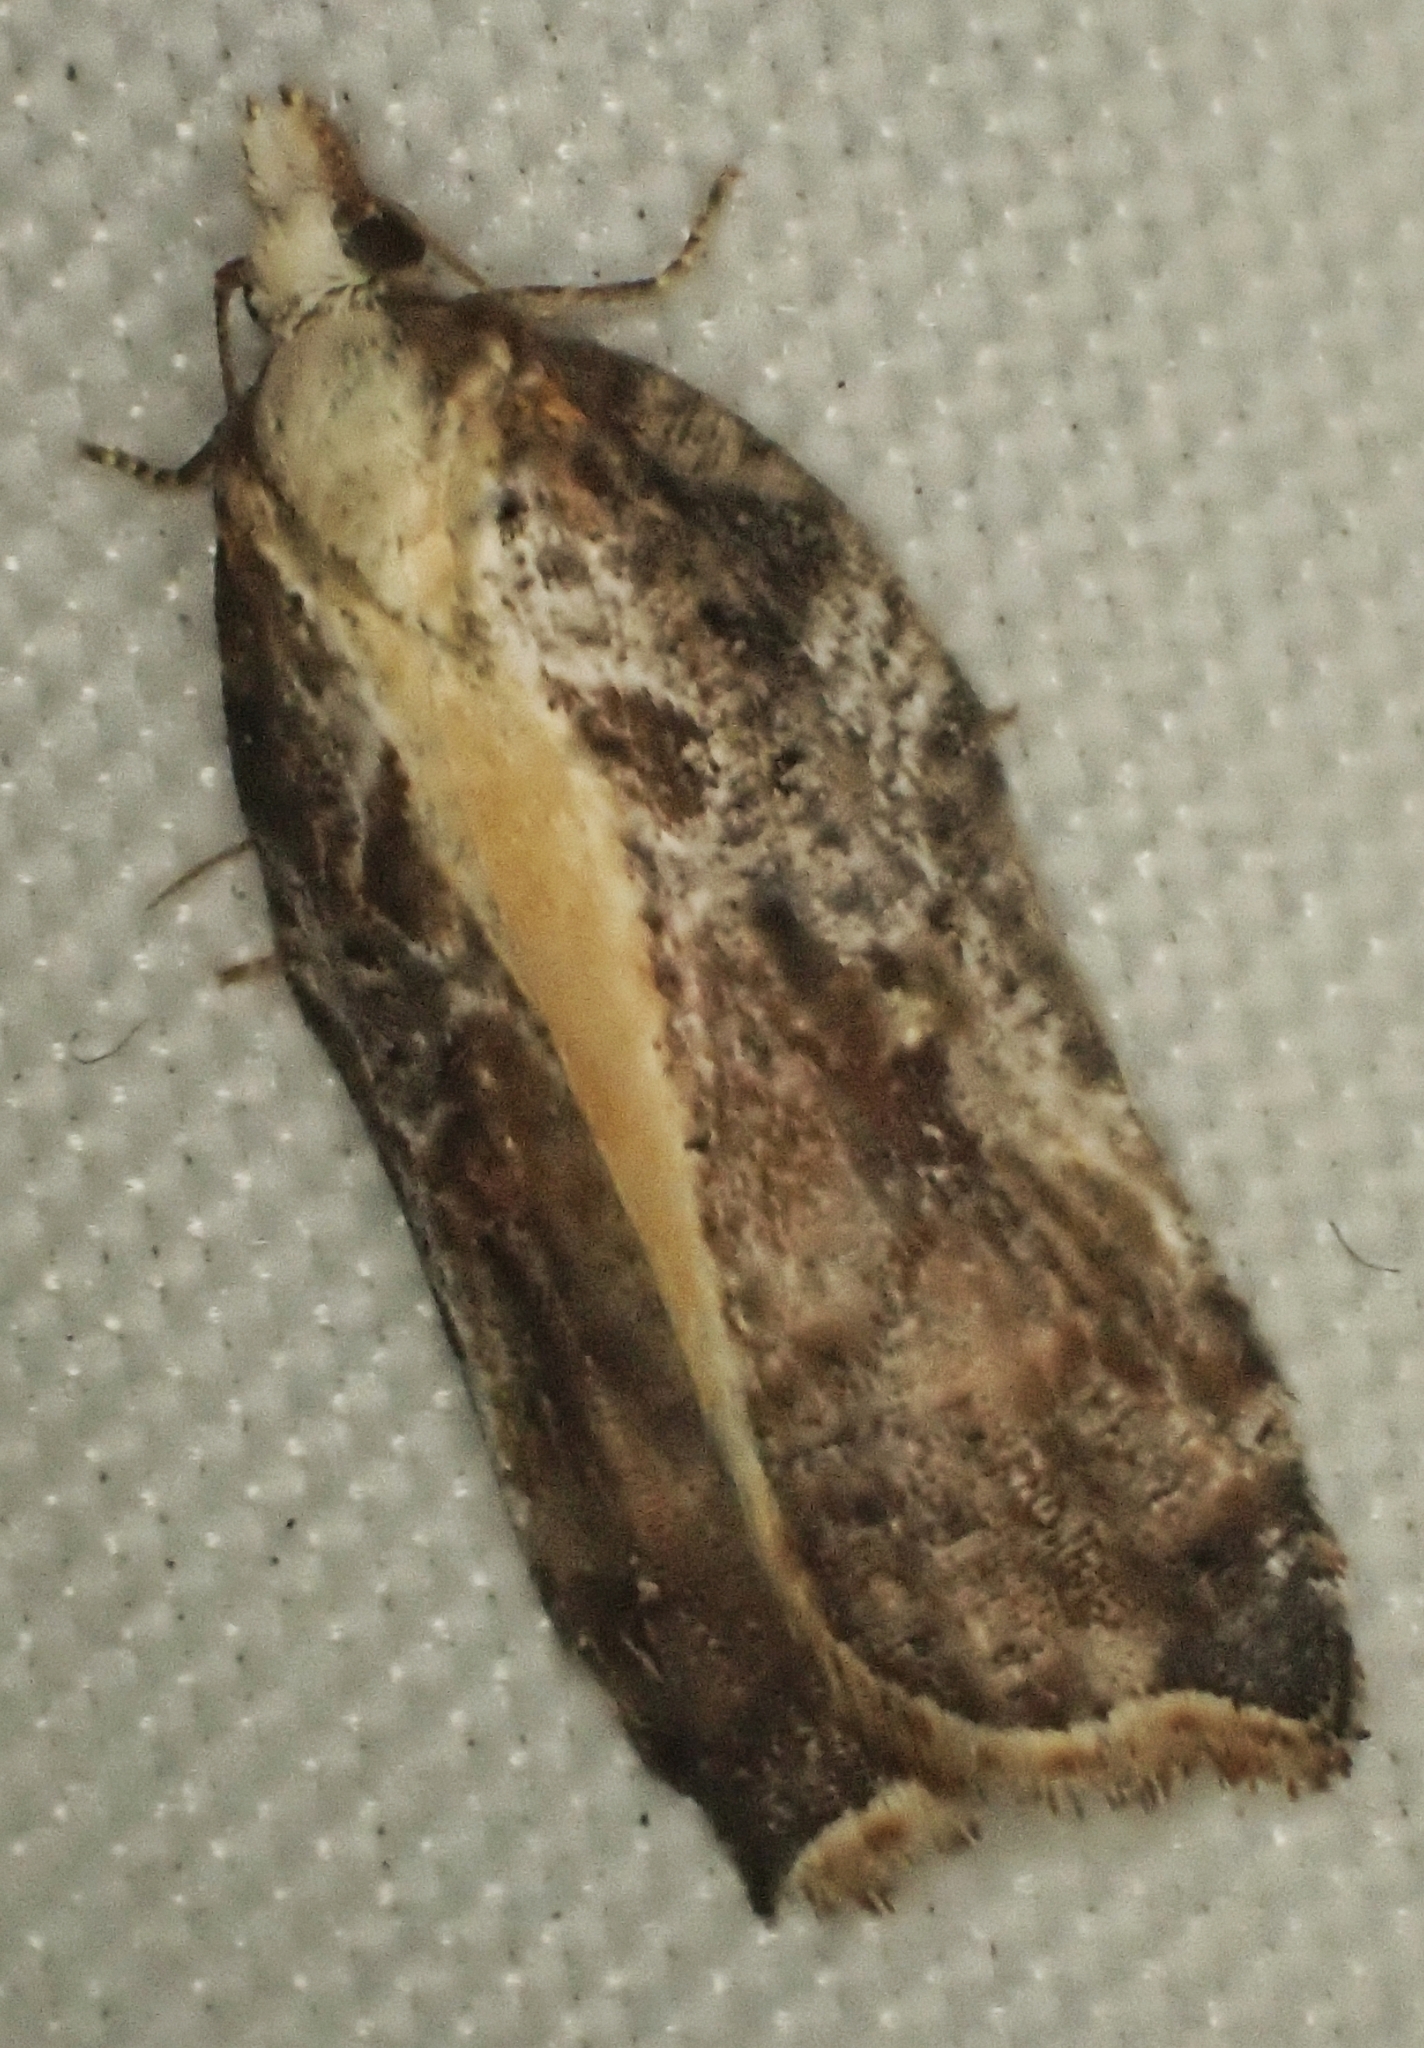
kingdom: Animalia
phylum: Arthropoda
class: Insecta
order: Lepidoptera
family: Tortricidae
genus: Acleris
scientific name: Acleris cristana
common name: Tufted button
